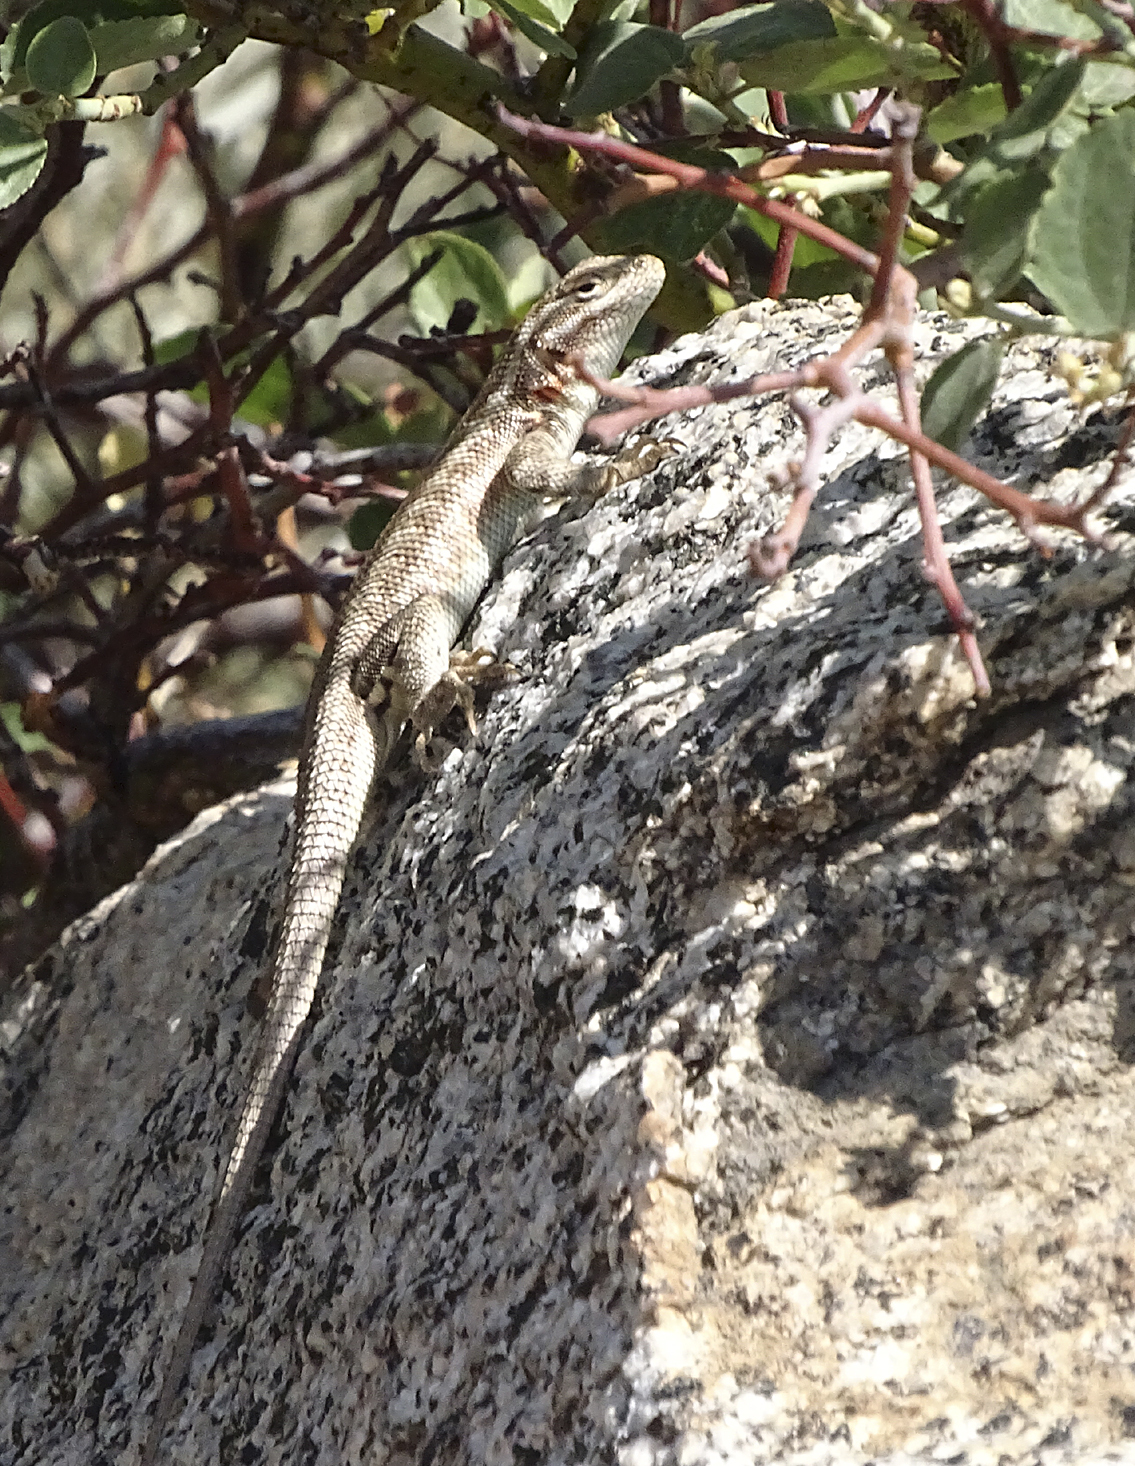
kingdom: Animalia
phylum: Chordata
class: Squamata
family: Phrynosomatidae
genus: Sceloporus
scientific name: Sceloporus graciosus
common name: Sagebrush lizard
